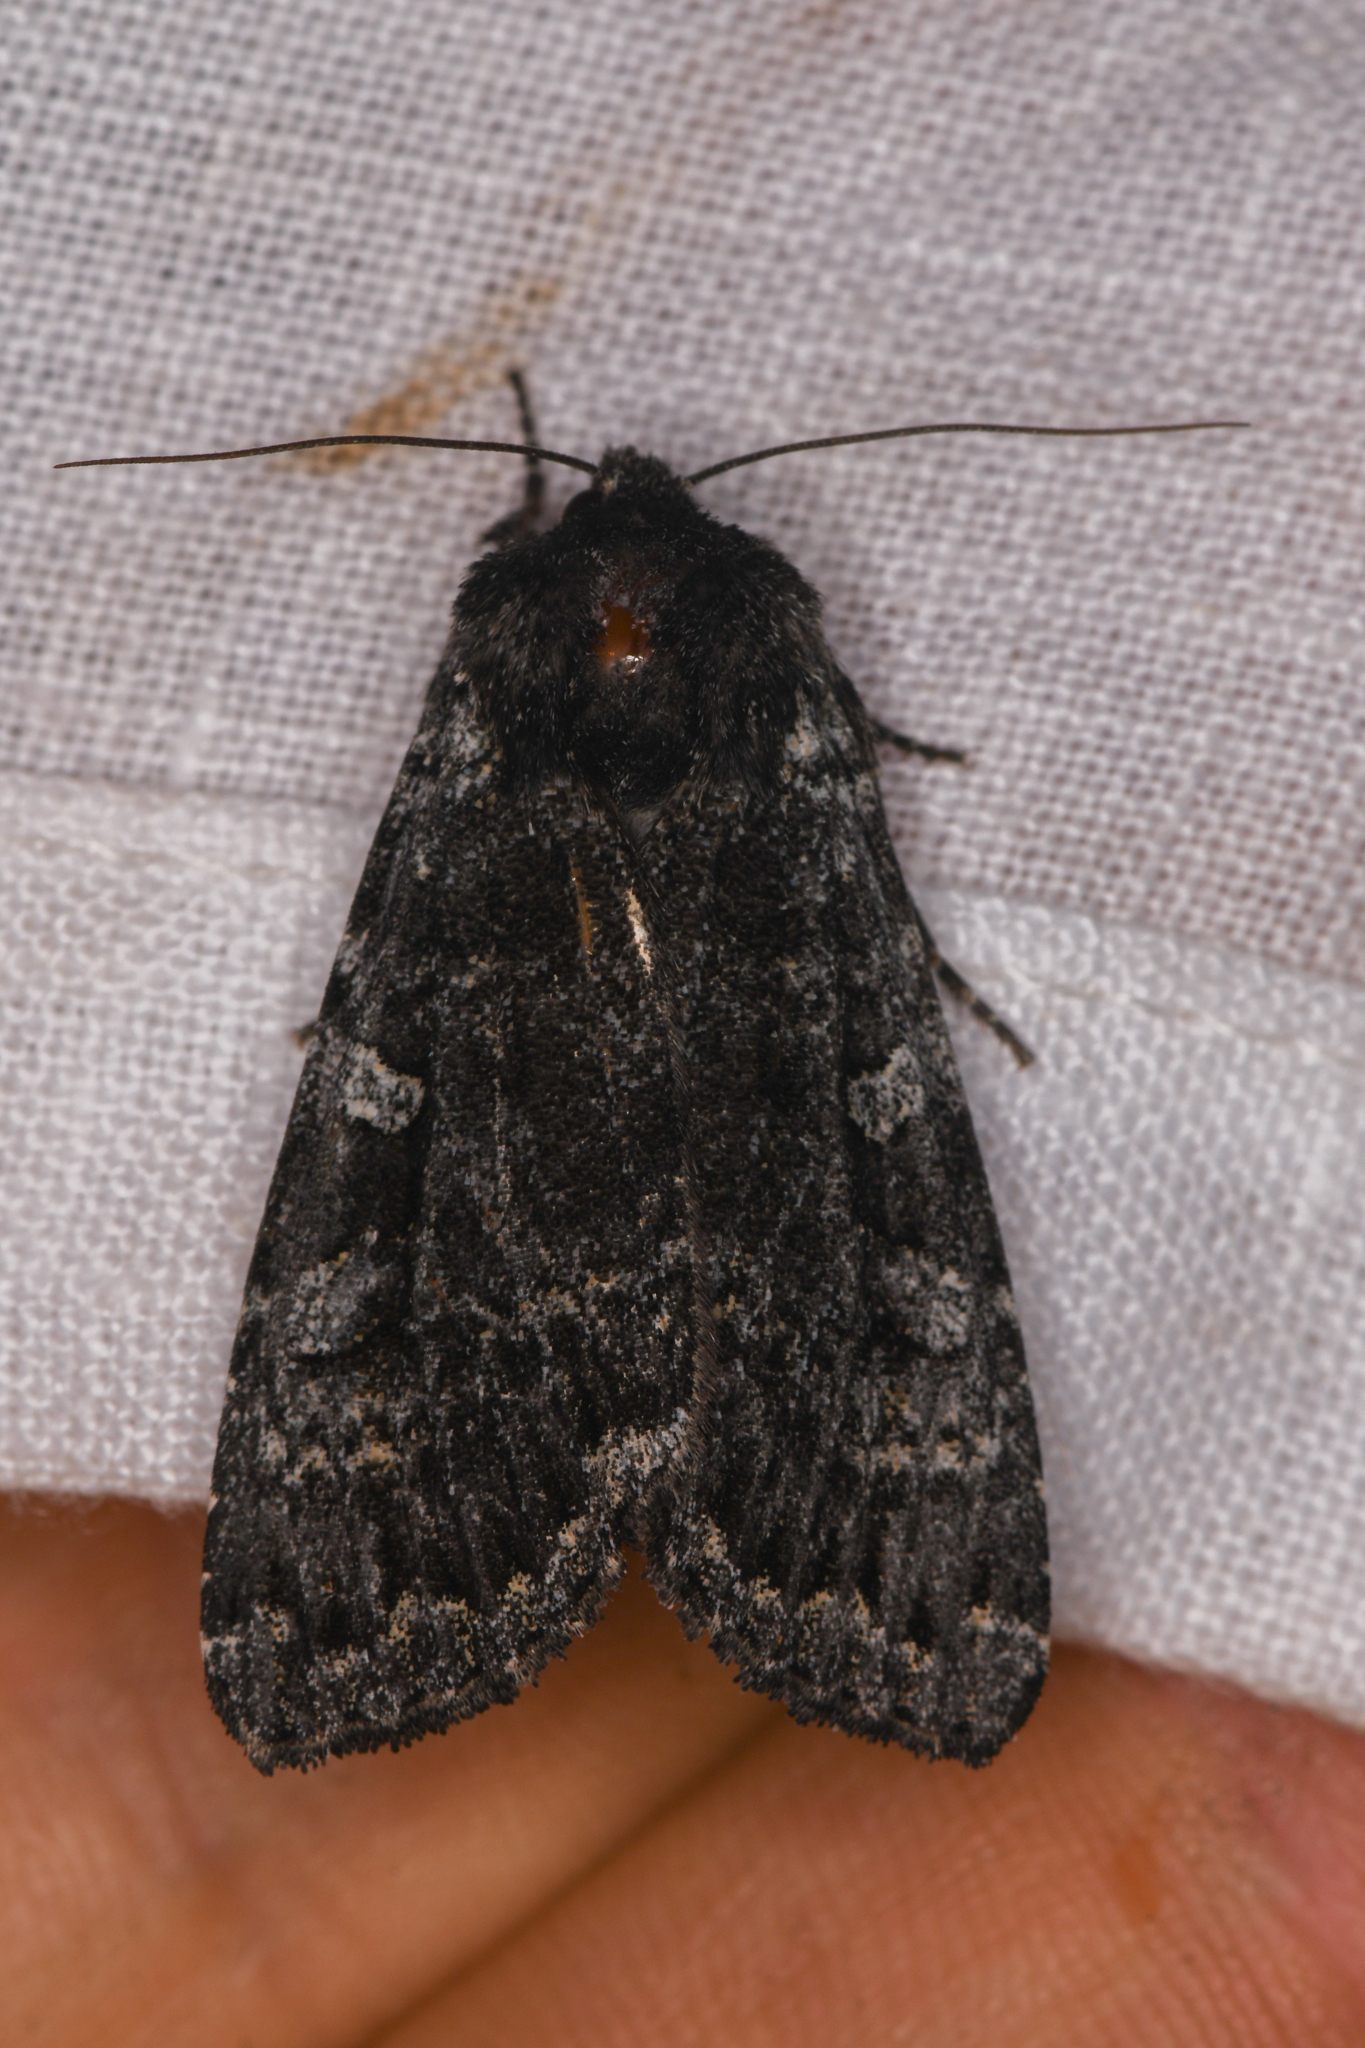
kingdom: Animalia
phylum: Arthropoda
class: Insecta
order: Lepidoptera
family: Noctuidae
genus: Eurois
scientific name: Eurois nigra
